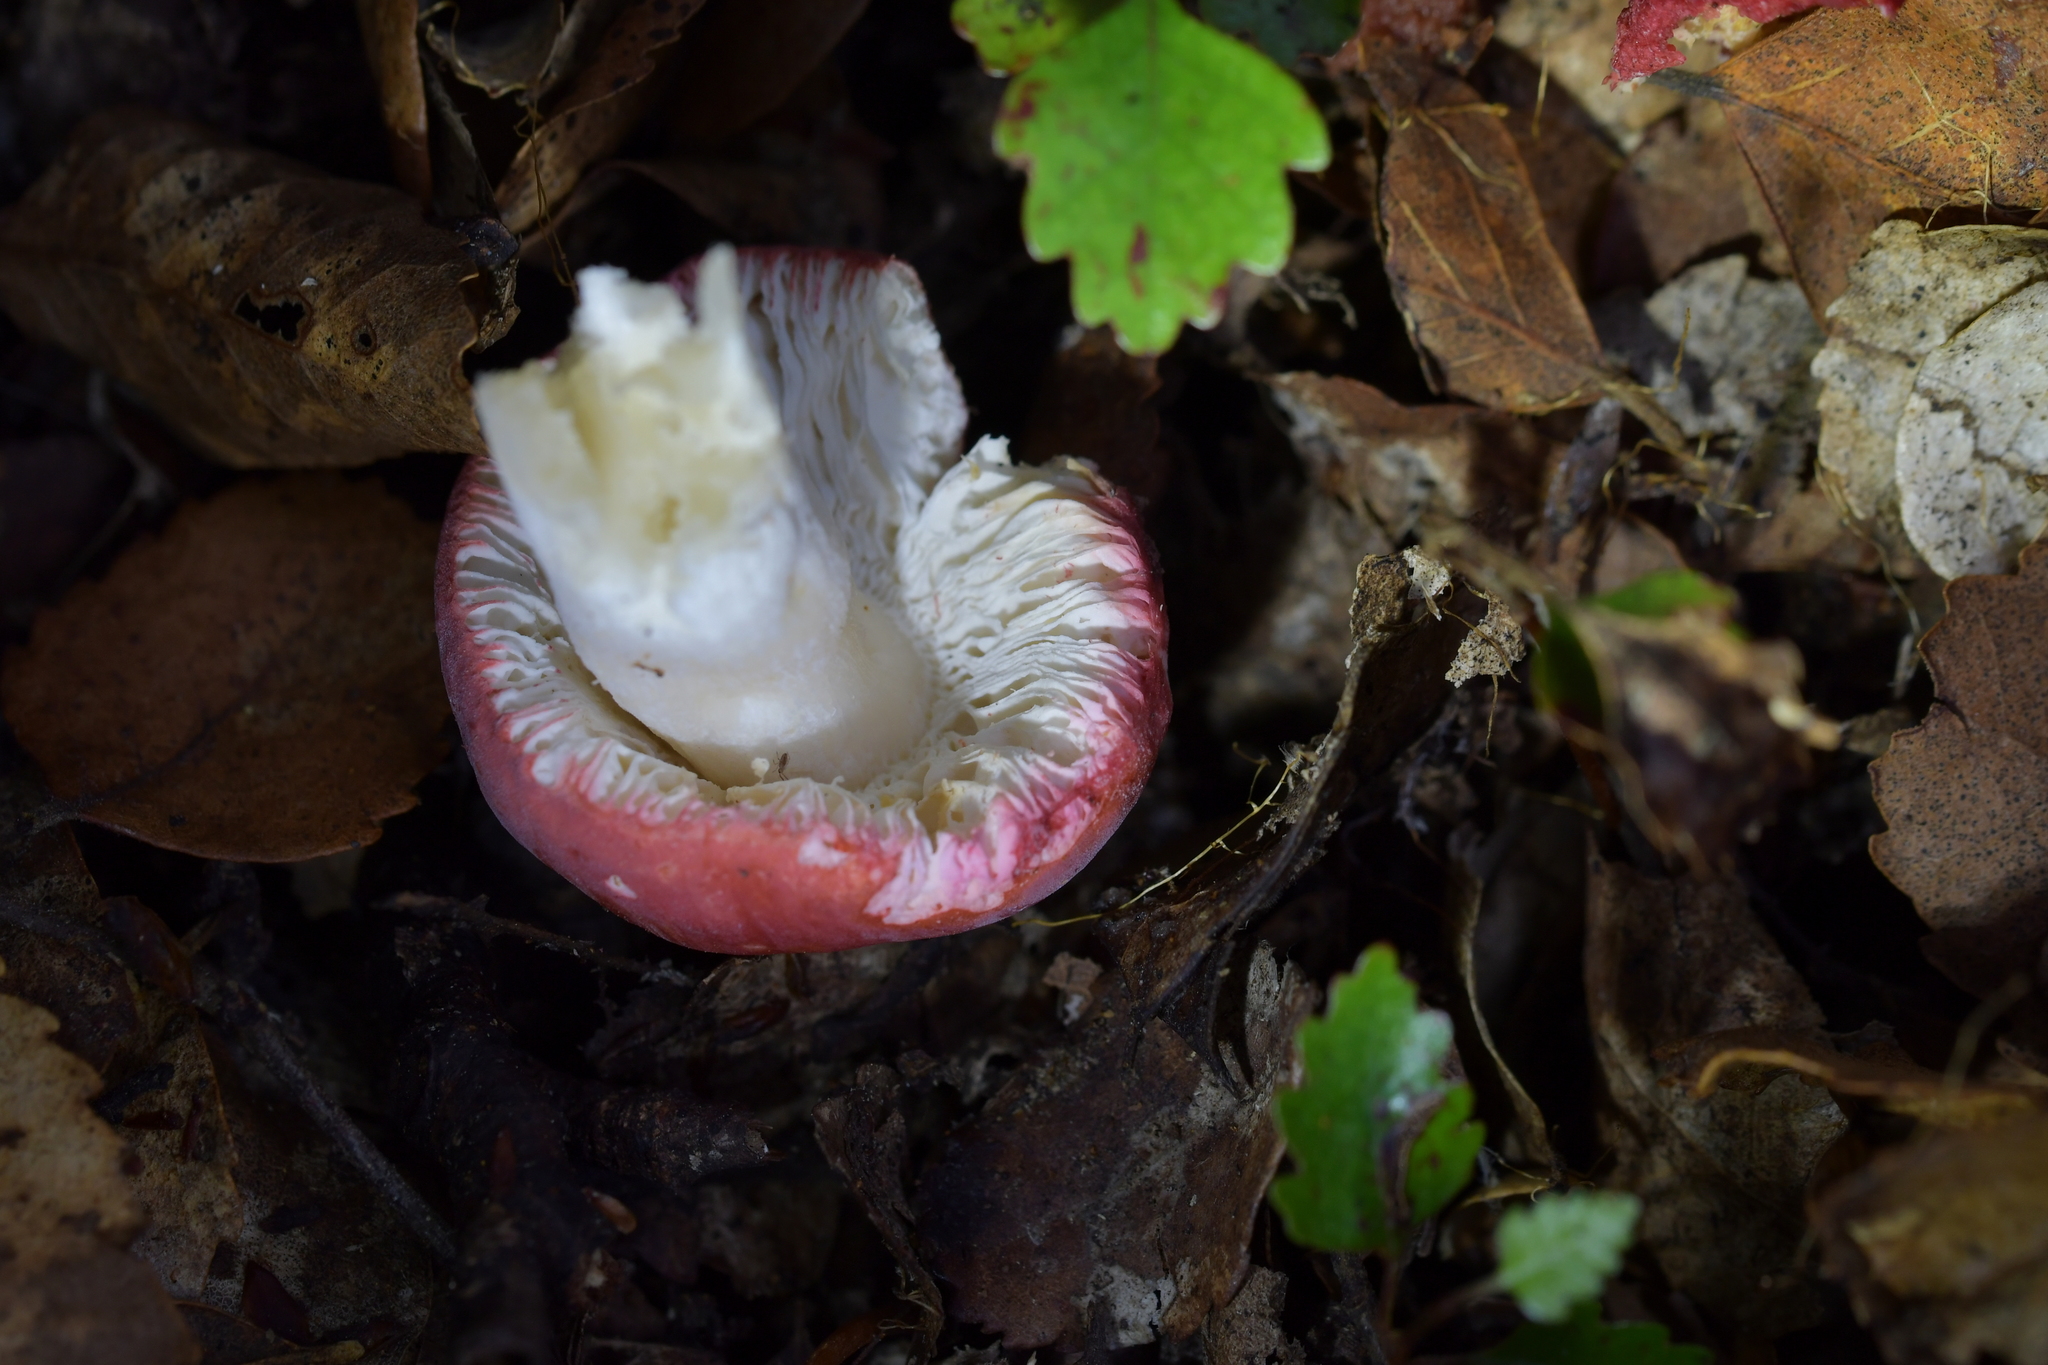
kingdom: Fungi
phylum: Basidiomycota
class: Agaricomycetes
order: Russulales
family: Russulaceae
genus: Russula
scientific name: Russula kermesina
